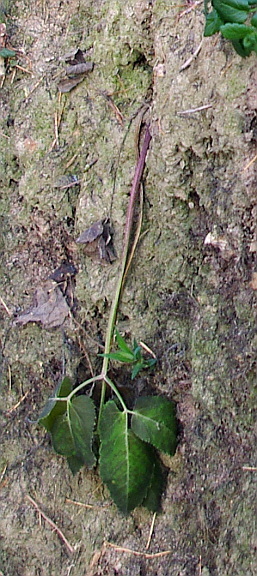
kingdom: Plantae
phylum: Tracheophyta
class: Magnoliopsida
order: Apiales
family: Apiaceae
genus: Aegopodium
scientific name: Aegopodium podagraria
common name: Ground-elder
